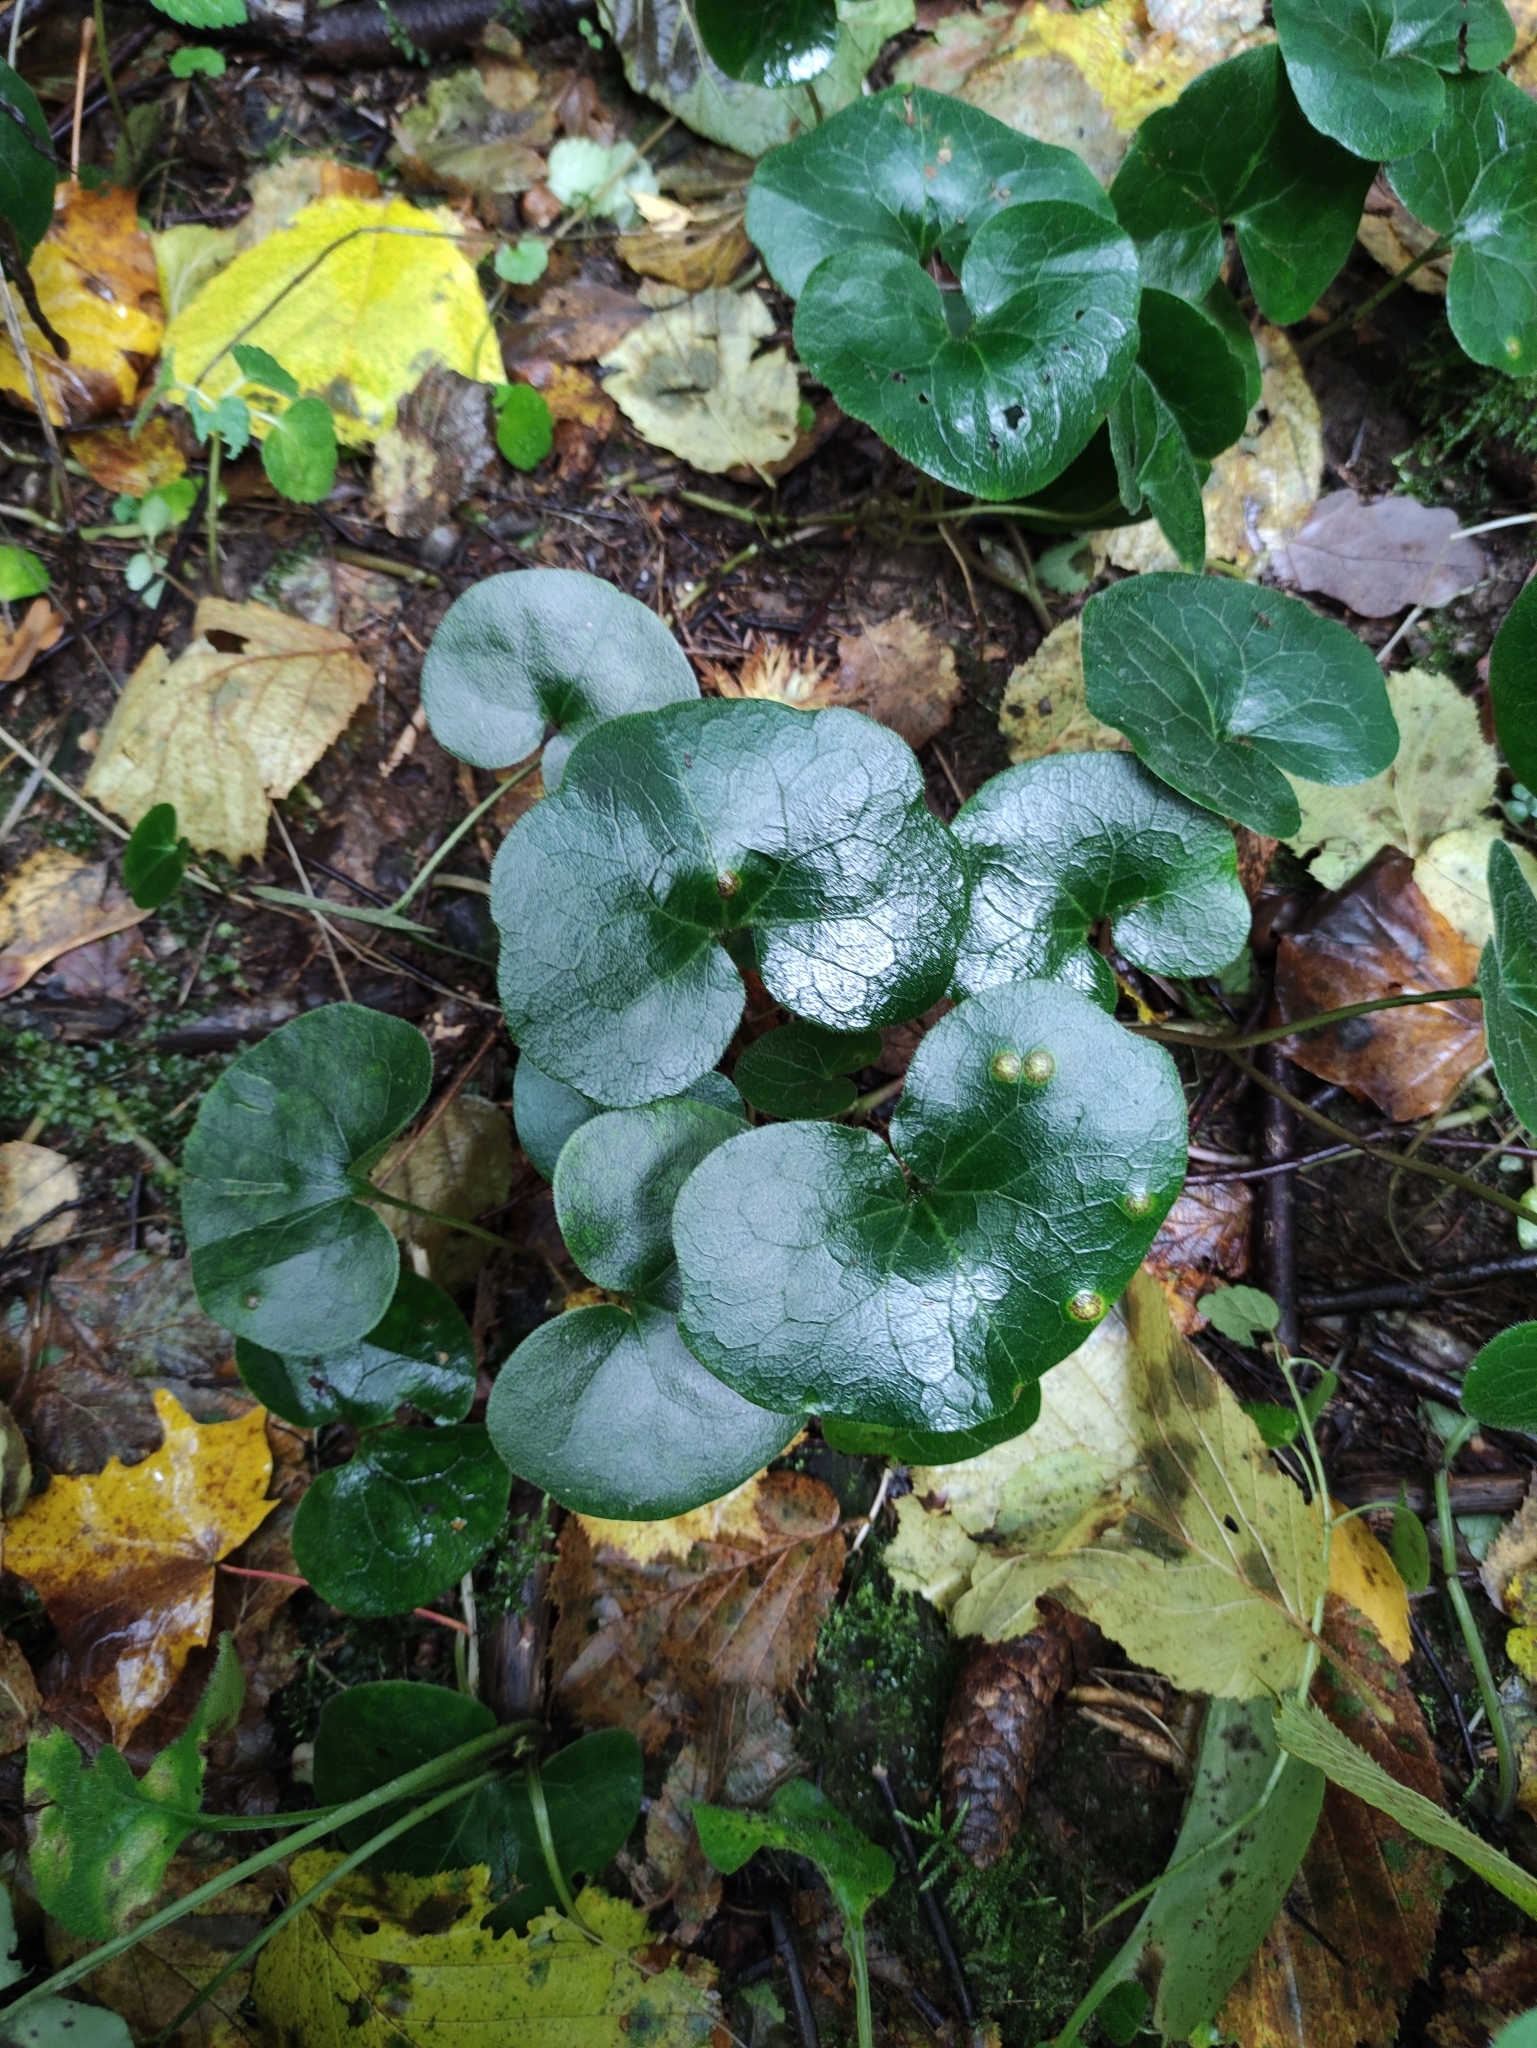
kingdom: Plantae
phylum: Tracheophyta
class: Magnoliopsida
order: Piperales
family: Aristolochiaceae
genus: Asarum
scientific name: Asarum europaeum
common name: Asarabacca
